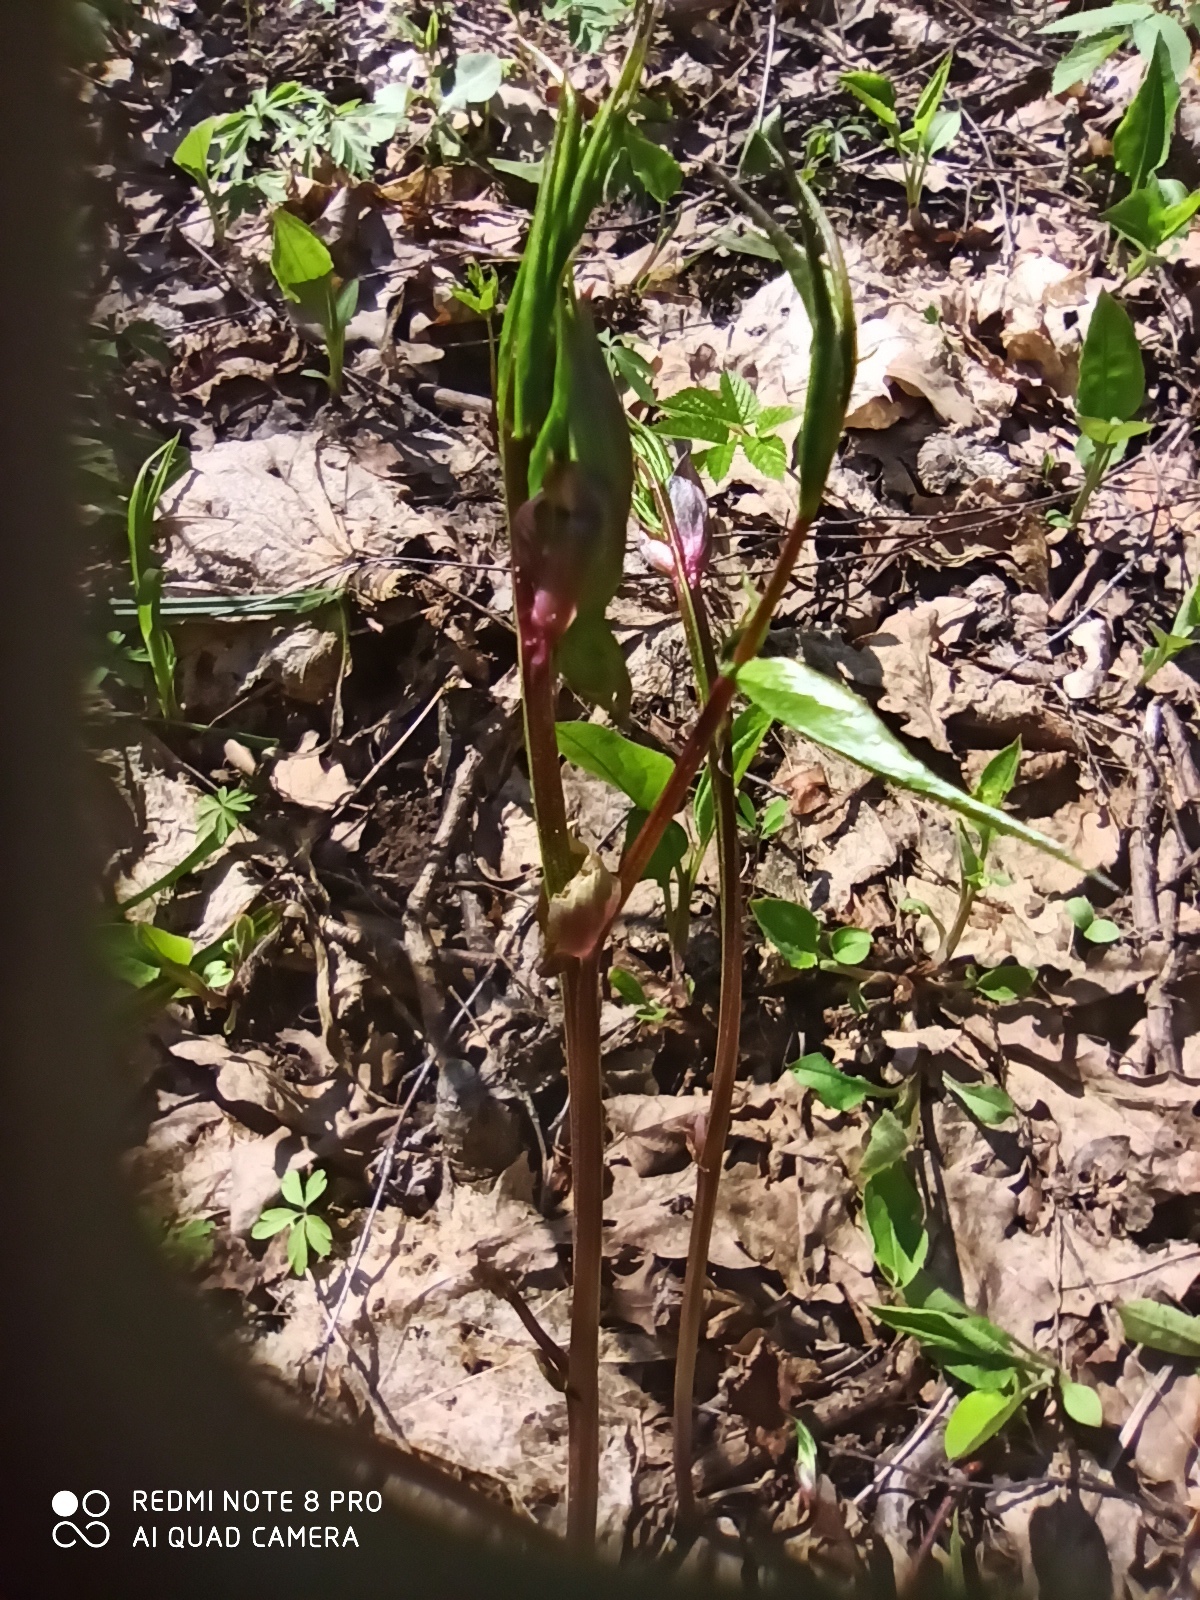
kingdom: Plantae
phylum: Tracheophyta
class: Magnoliopsida
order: Fabales
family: Fabaceae
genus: Lathyrus
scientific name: Lathyrus vernus
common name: Spring pea
